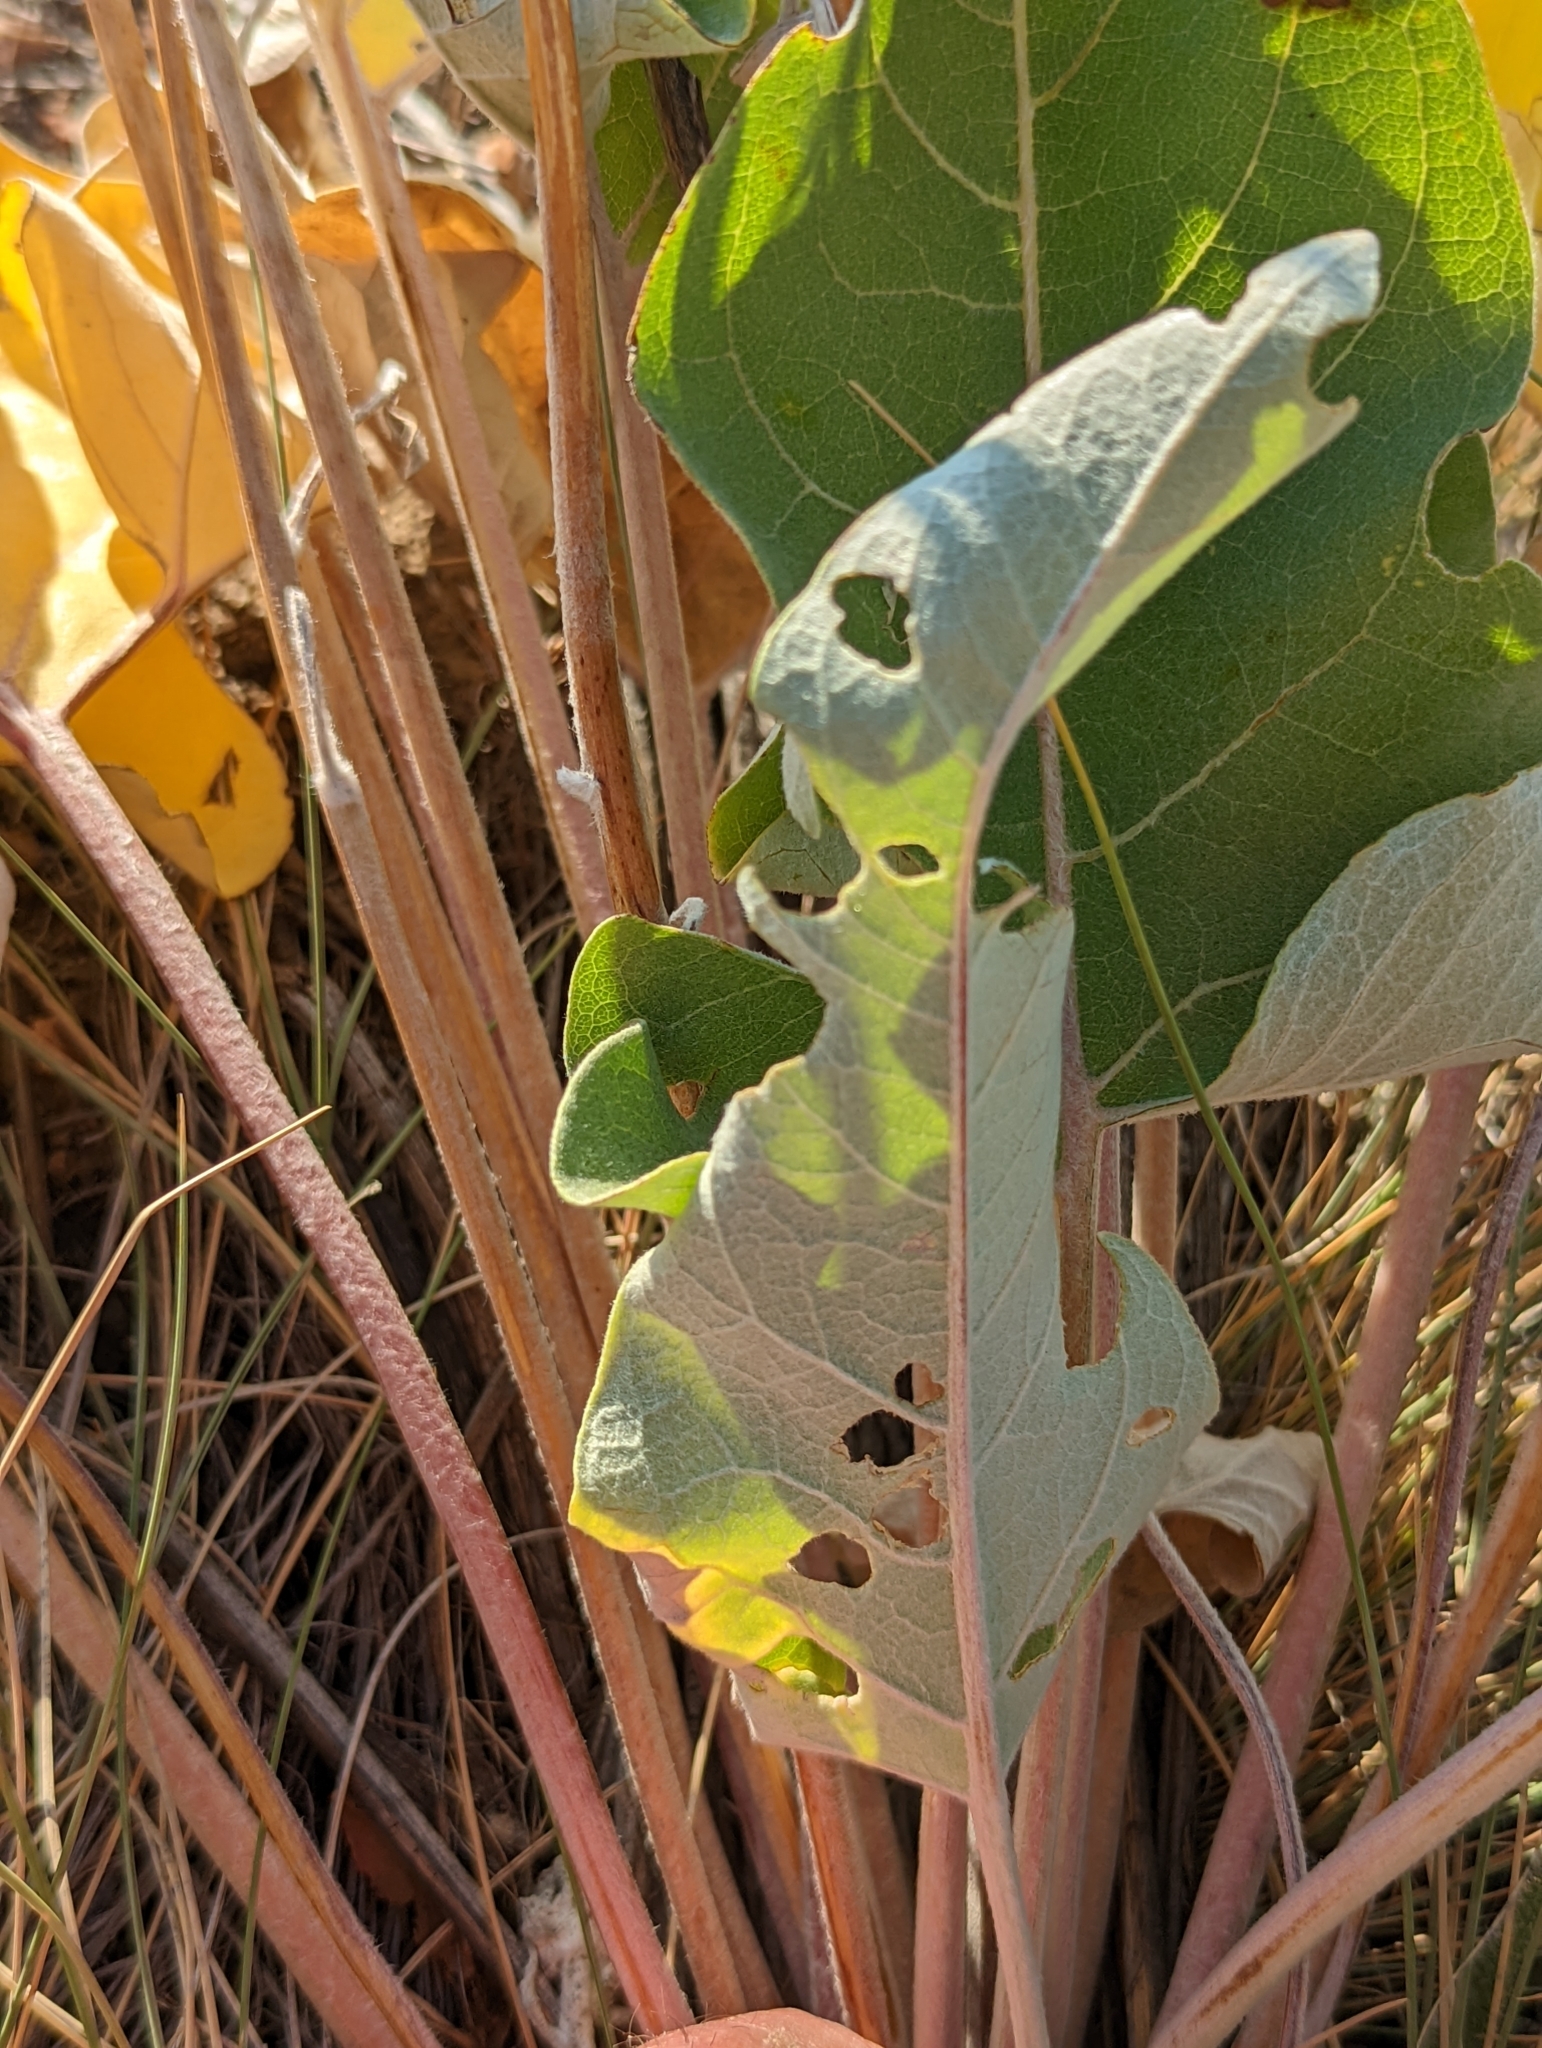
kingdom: Plantae
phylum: Tracheophyta
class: Magnoliopsida
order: Asterales
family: Asteraceae
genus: Wyethia
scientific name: Wyethia sagittata
